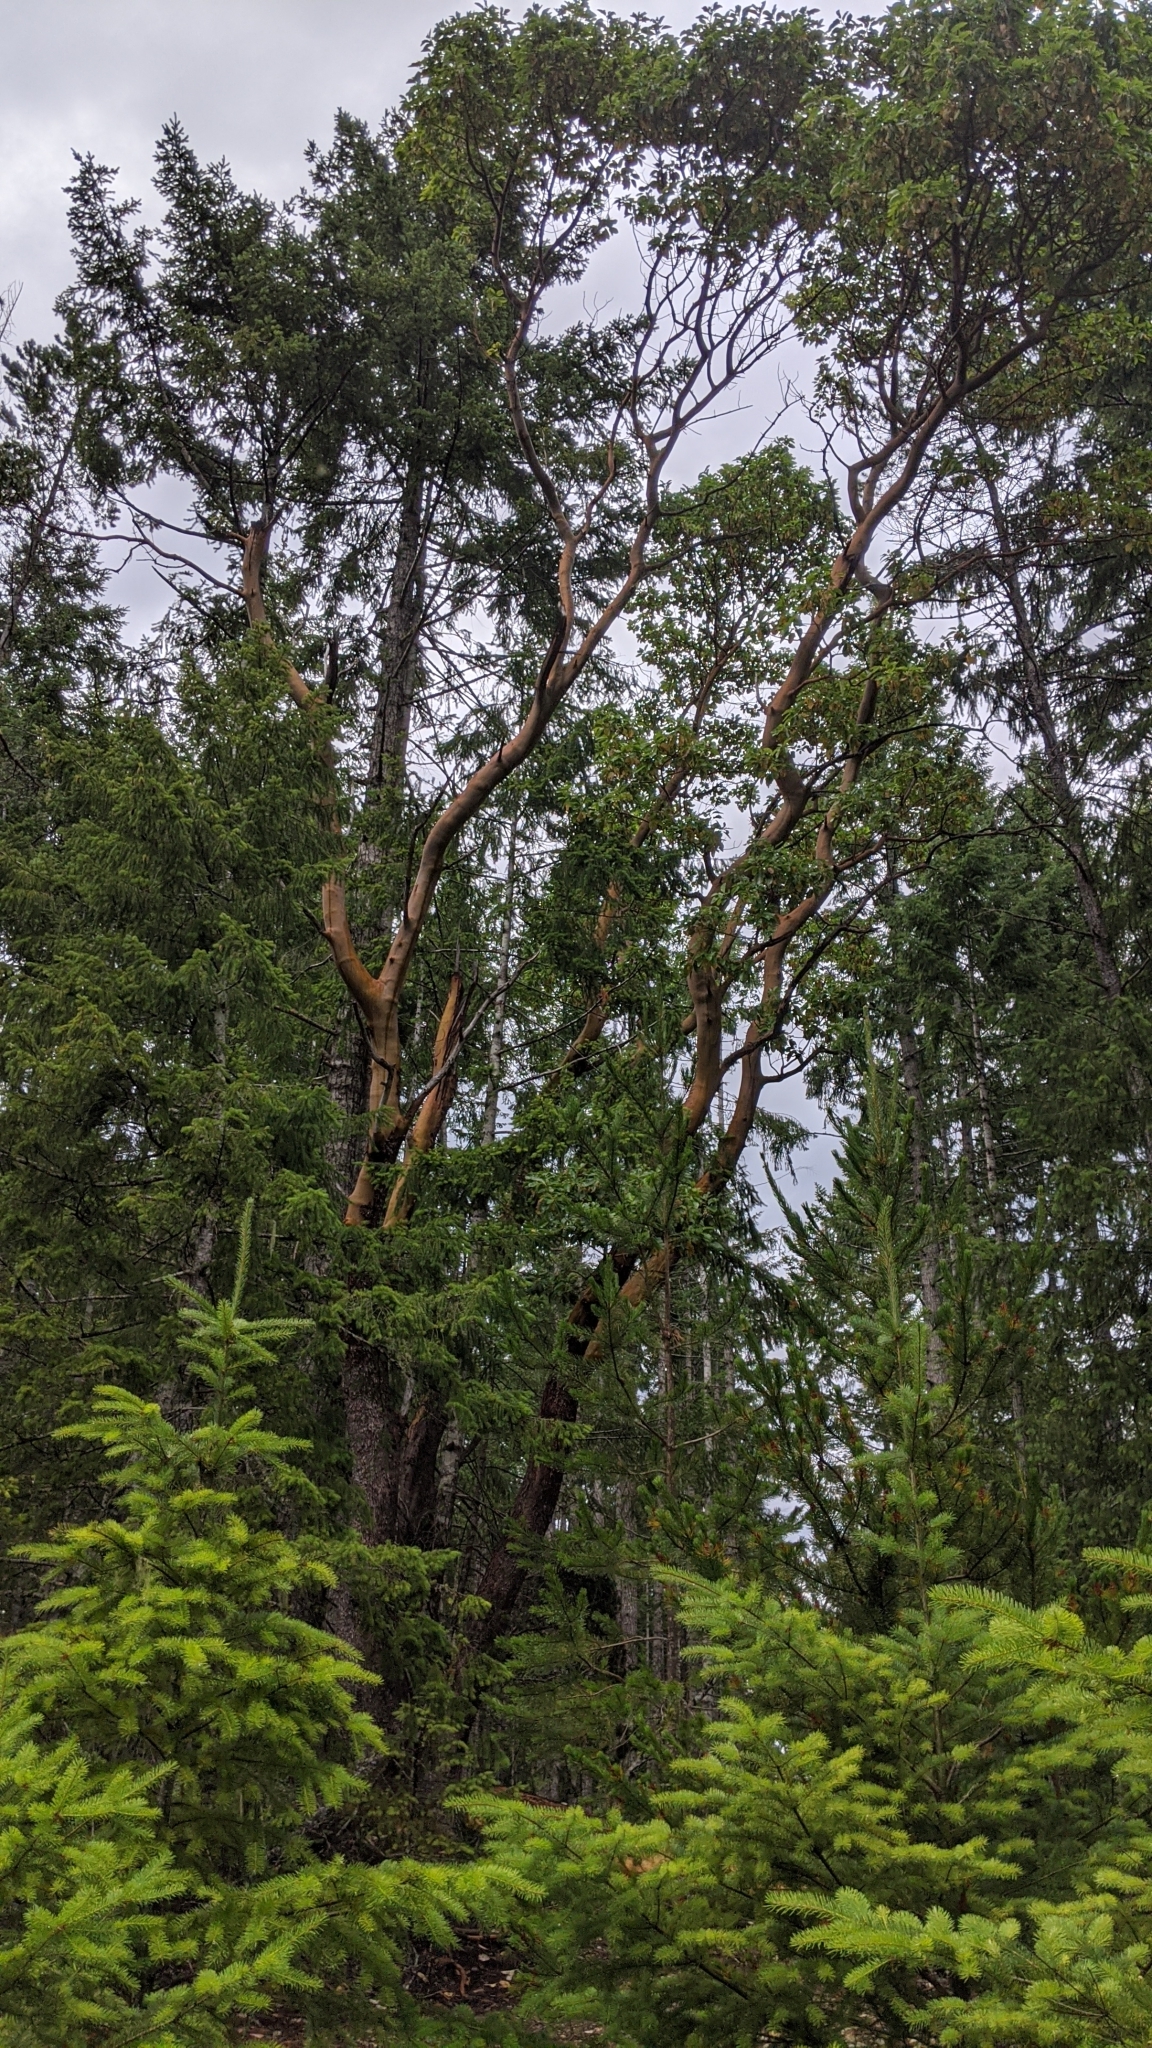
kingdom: Plantae
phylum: Tracheophyta
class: Magnoliopsida
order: Ericales
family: Ericaceae
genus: Arbutus
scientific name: Arbutus menziesii
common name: Pacific madrone
